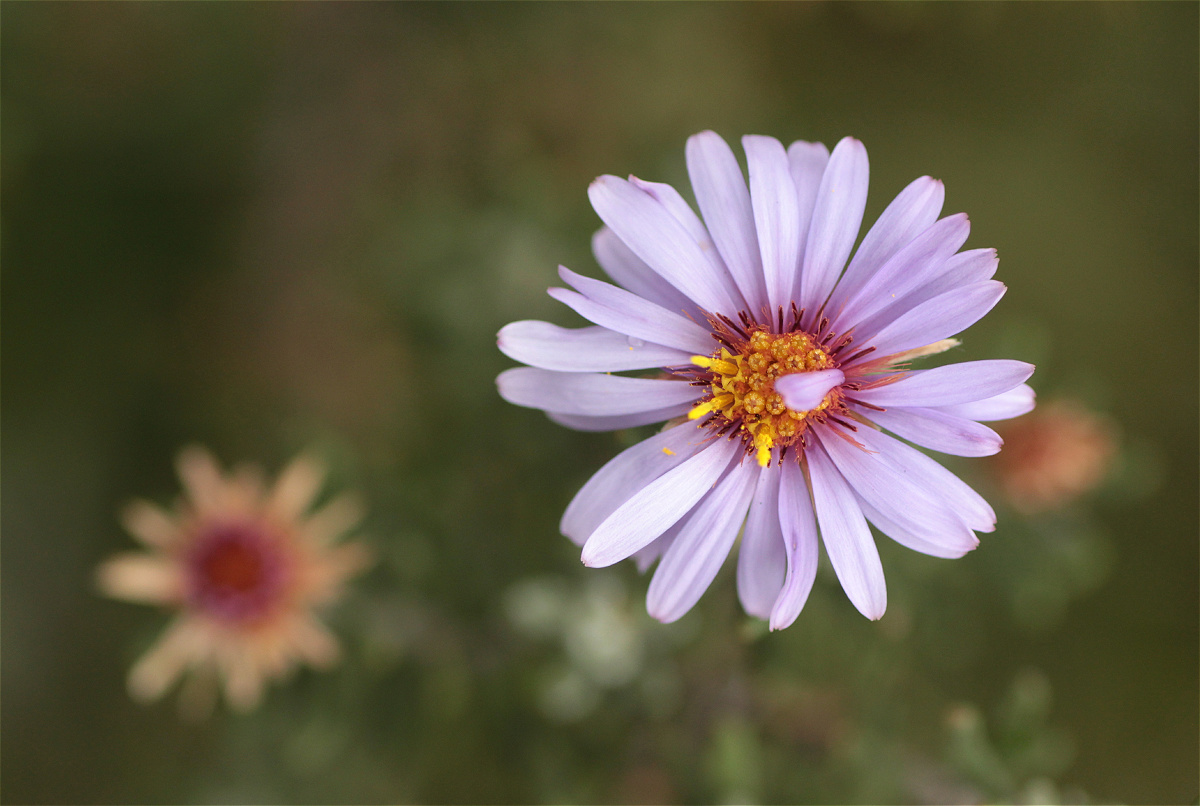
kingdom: Plantae
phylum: Tracheophyta
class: Magnoliopsida
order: Asterales
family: Asteraceae
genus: Diplostephium
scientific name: Diplostephium empetrifolium
